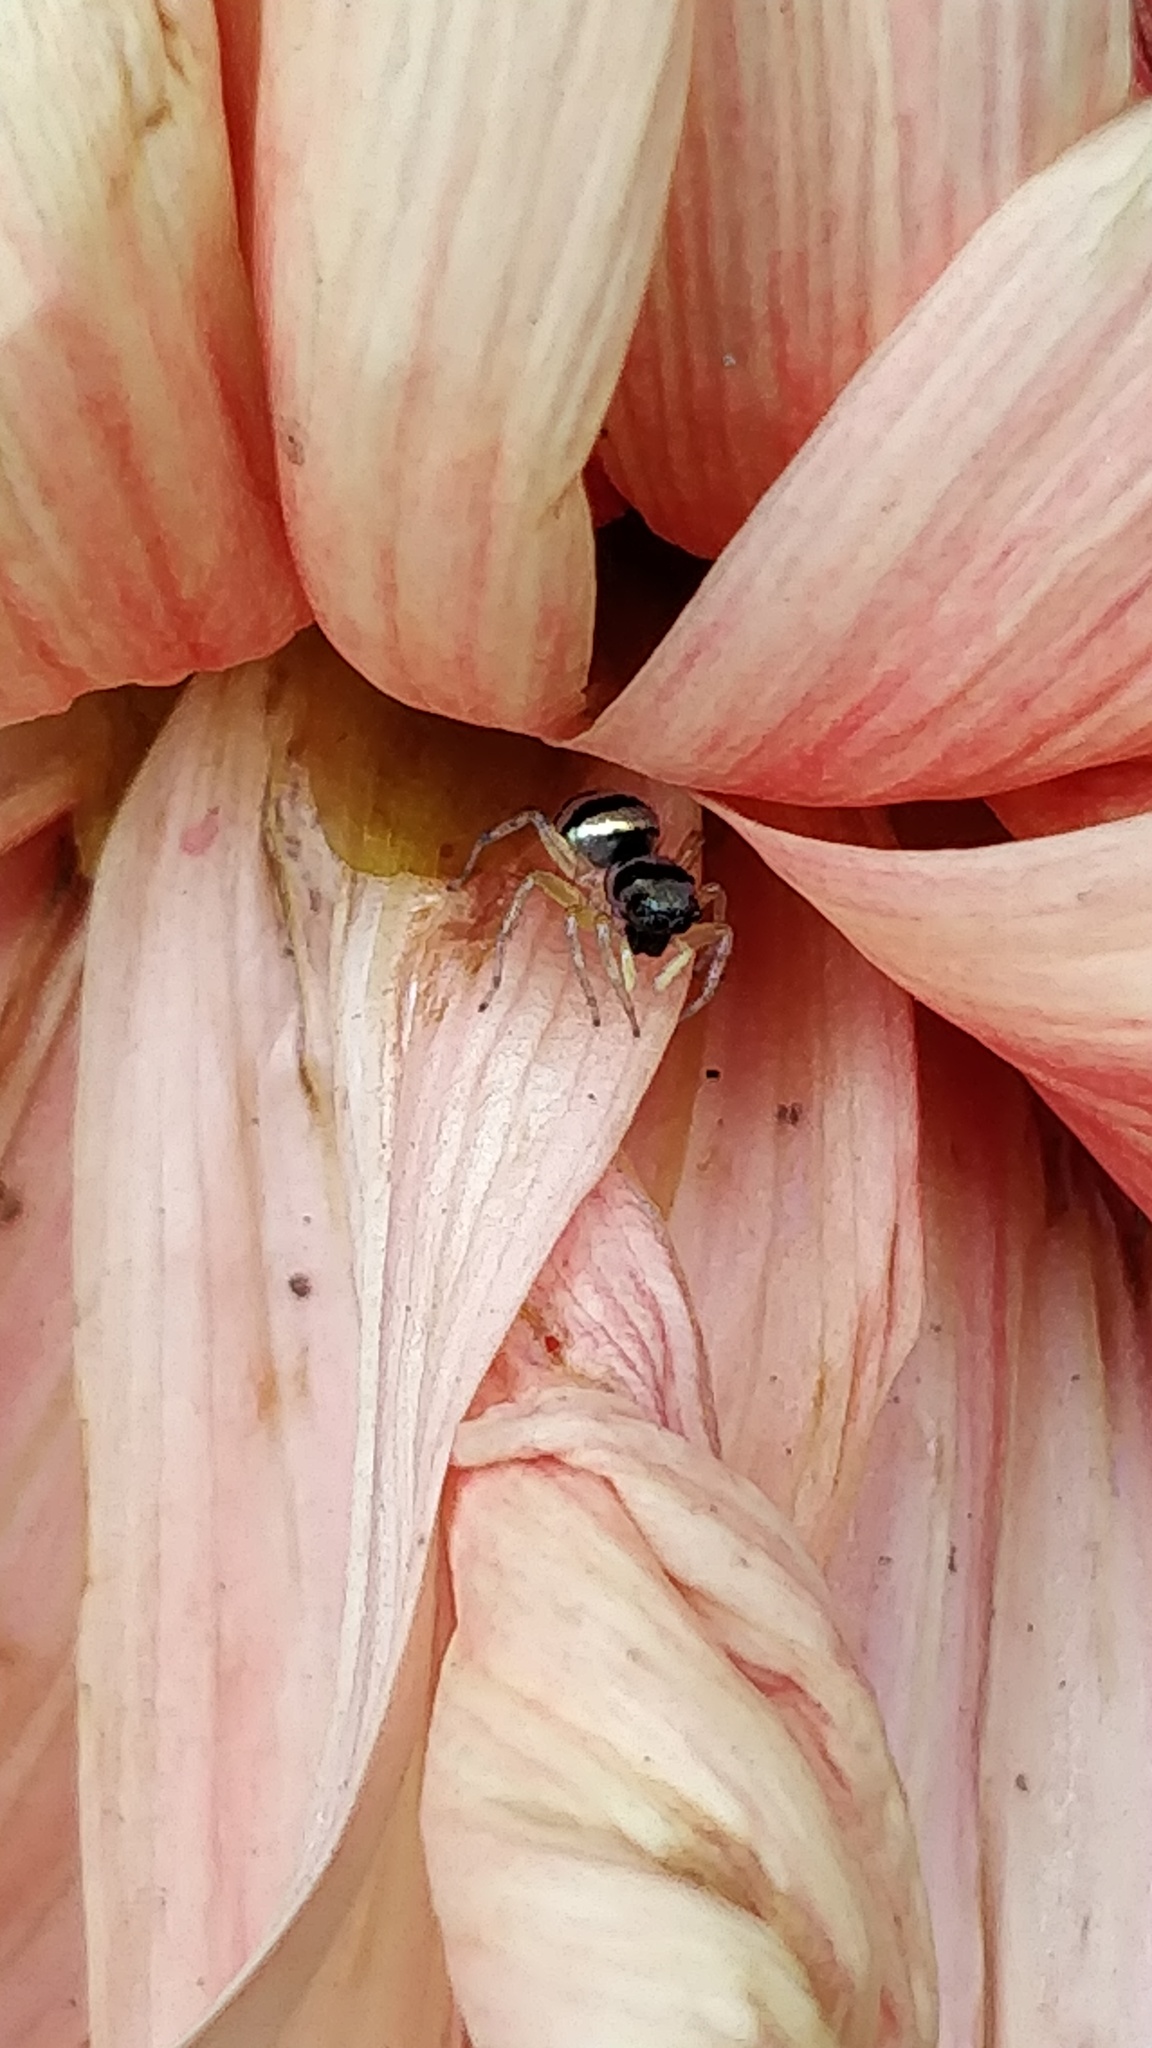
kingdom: Animalia
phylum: Arthropoda
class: Arachnida
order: Araneae
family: Salticidae
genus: Phintella
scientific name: Phintella vittata
